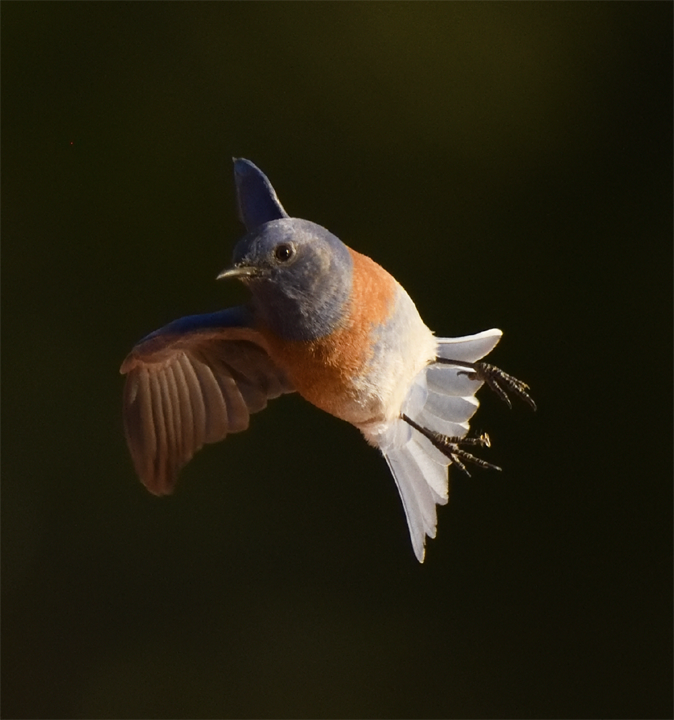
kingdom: Animalia
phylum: Chordata
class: Aves
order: Passeriformes
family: Turdidae
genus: Sialia
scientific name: Sialia mexicana
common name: Western bluebird
